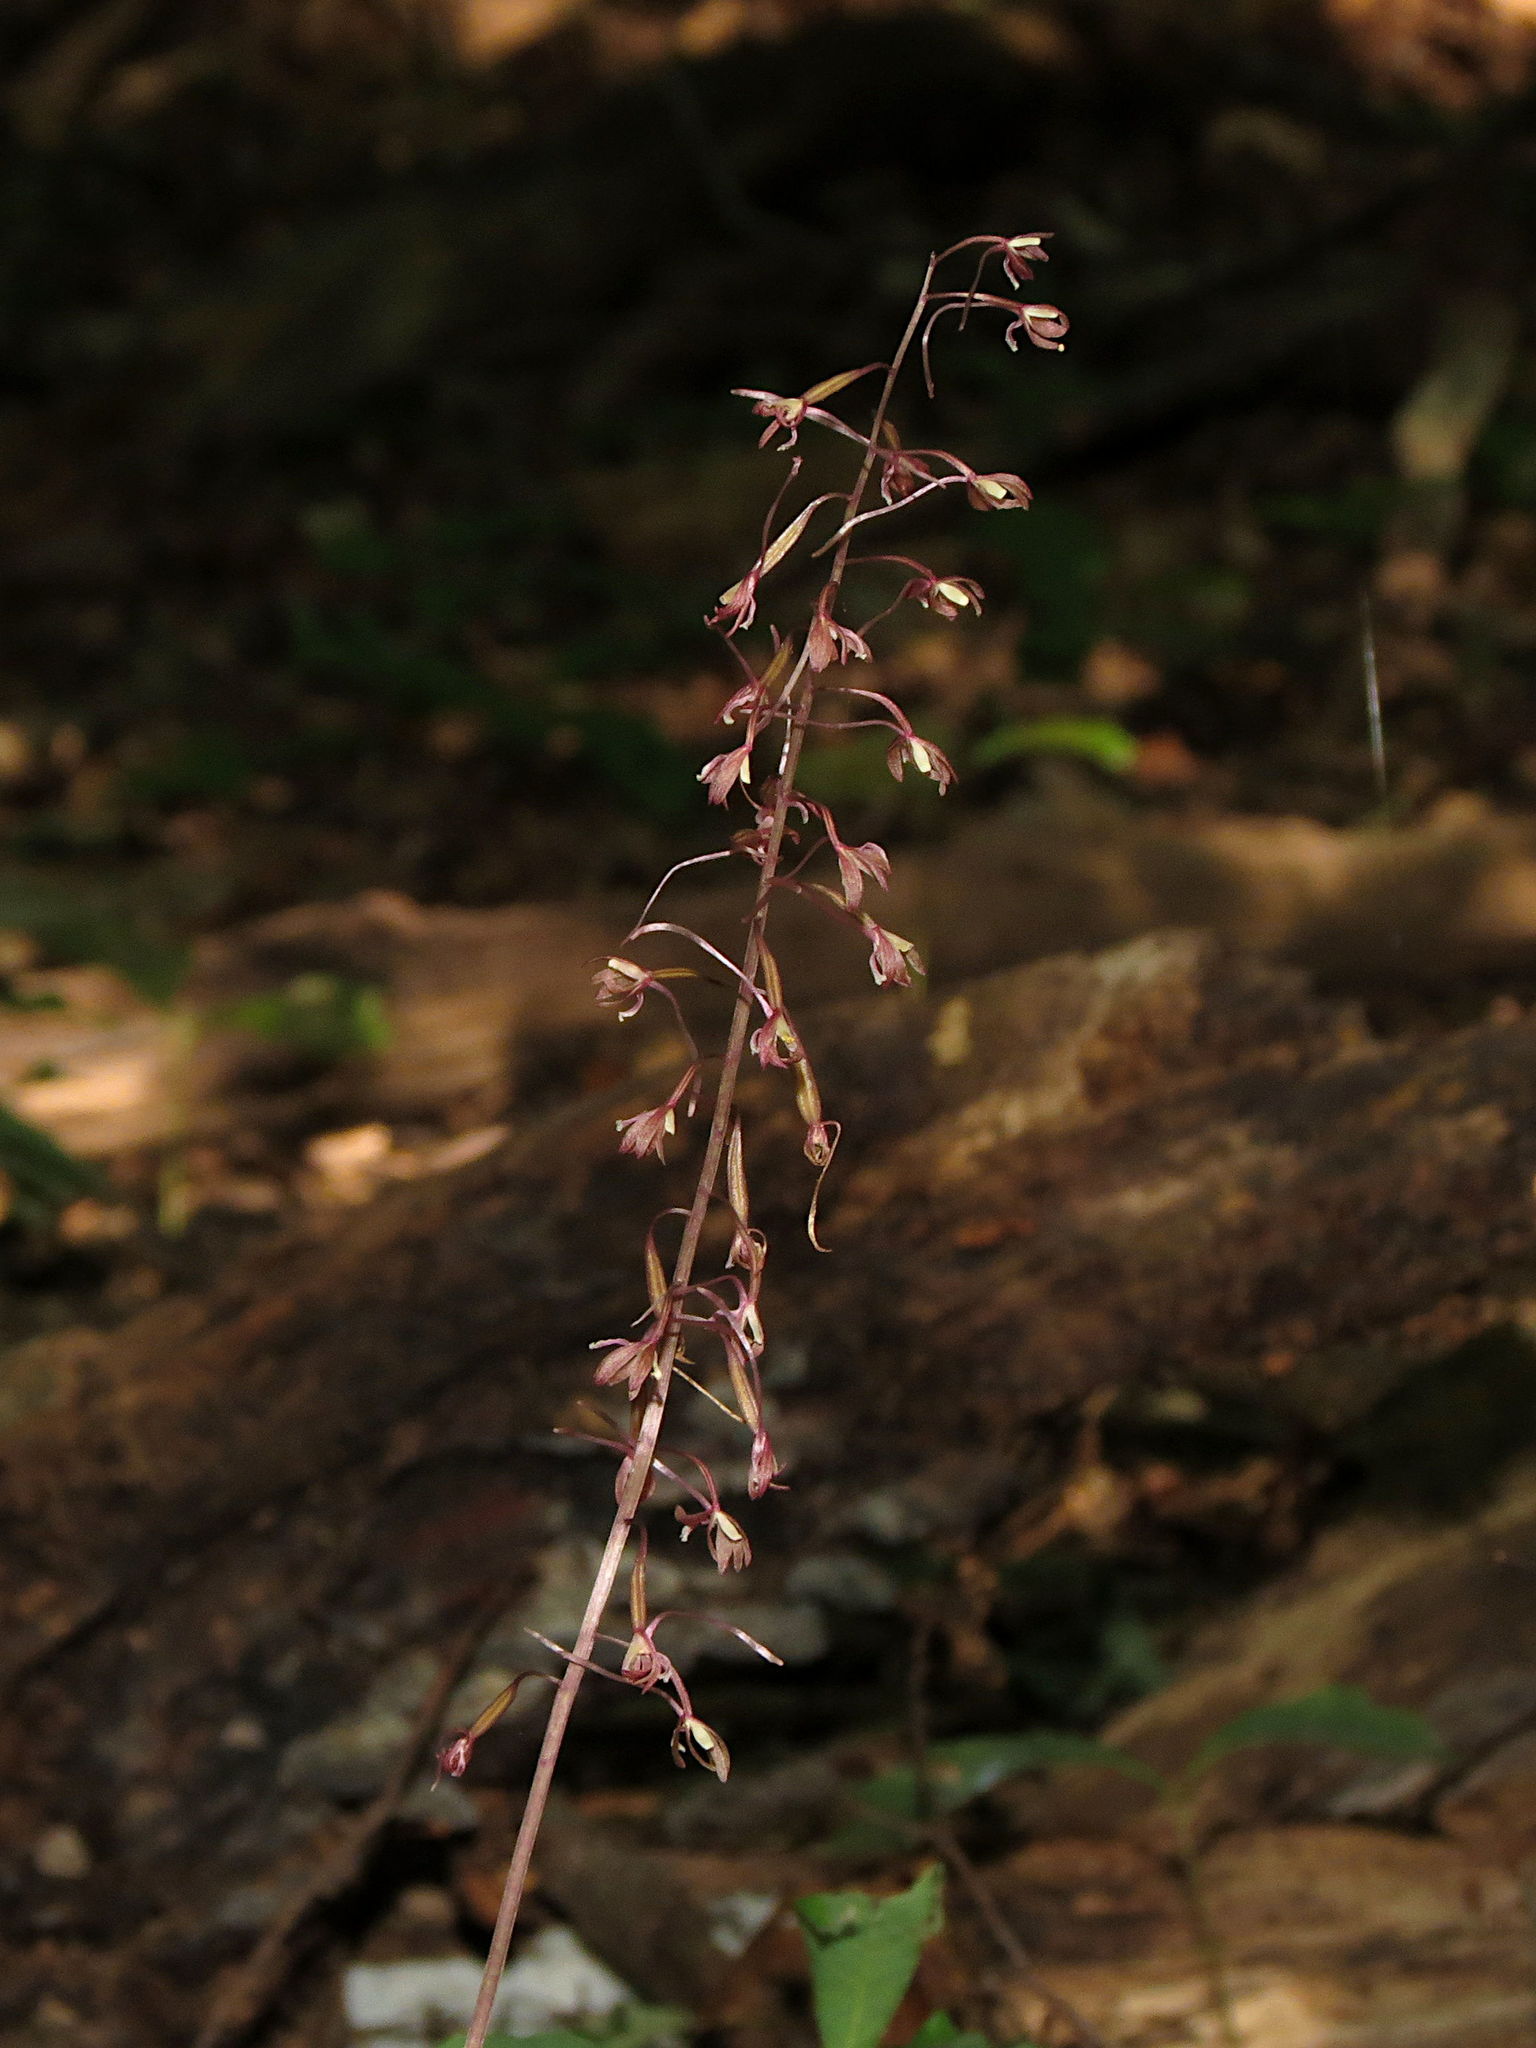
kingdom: Plantae
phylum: Tracheophyta
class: Liliopsida
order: Asparagales
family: Orchidaceae
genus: Tipularia
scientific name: Tipularia discolor
